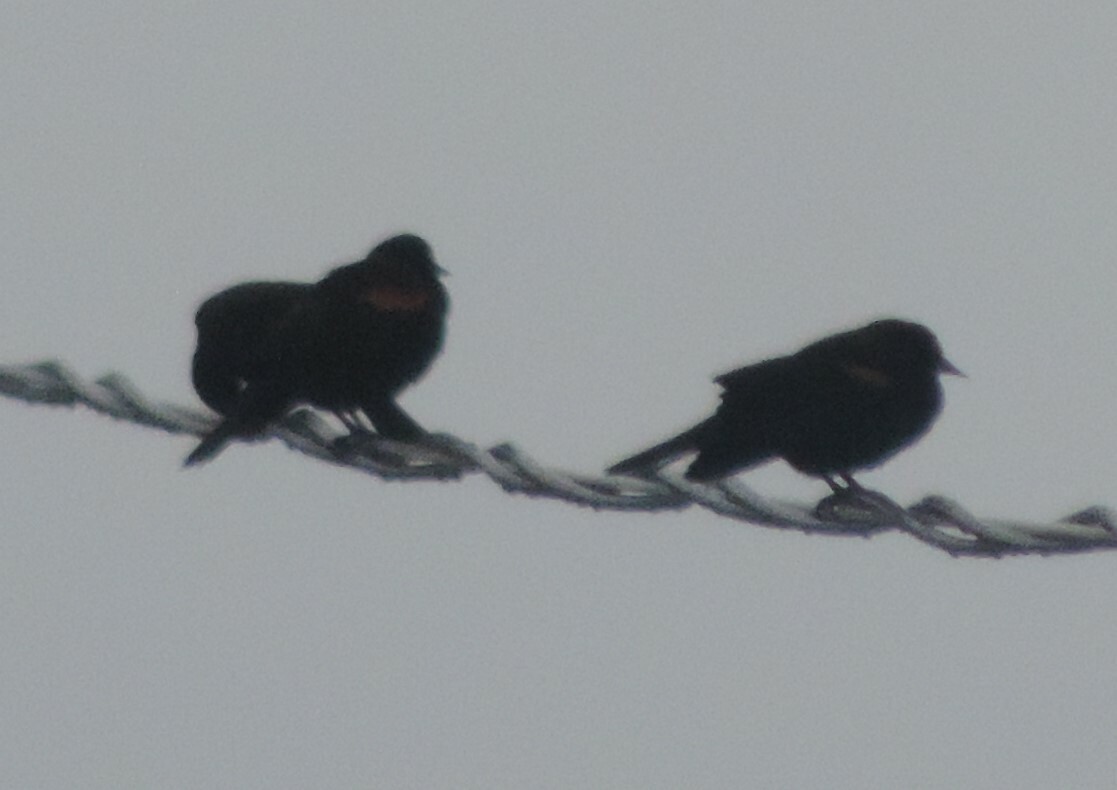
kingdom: Animalia
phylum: Chordata
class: Aves
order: Passeriformes
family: Icteridae
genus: Agelaius
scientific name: Agelaius phoeniceus
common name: Red-winged blackbird
